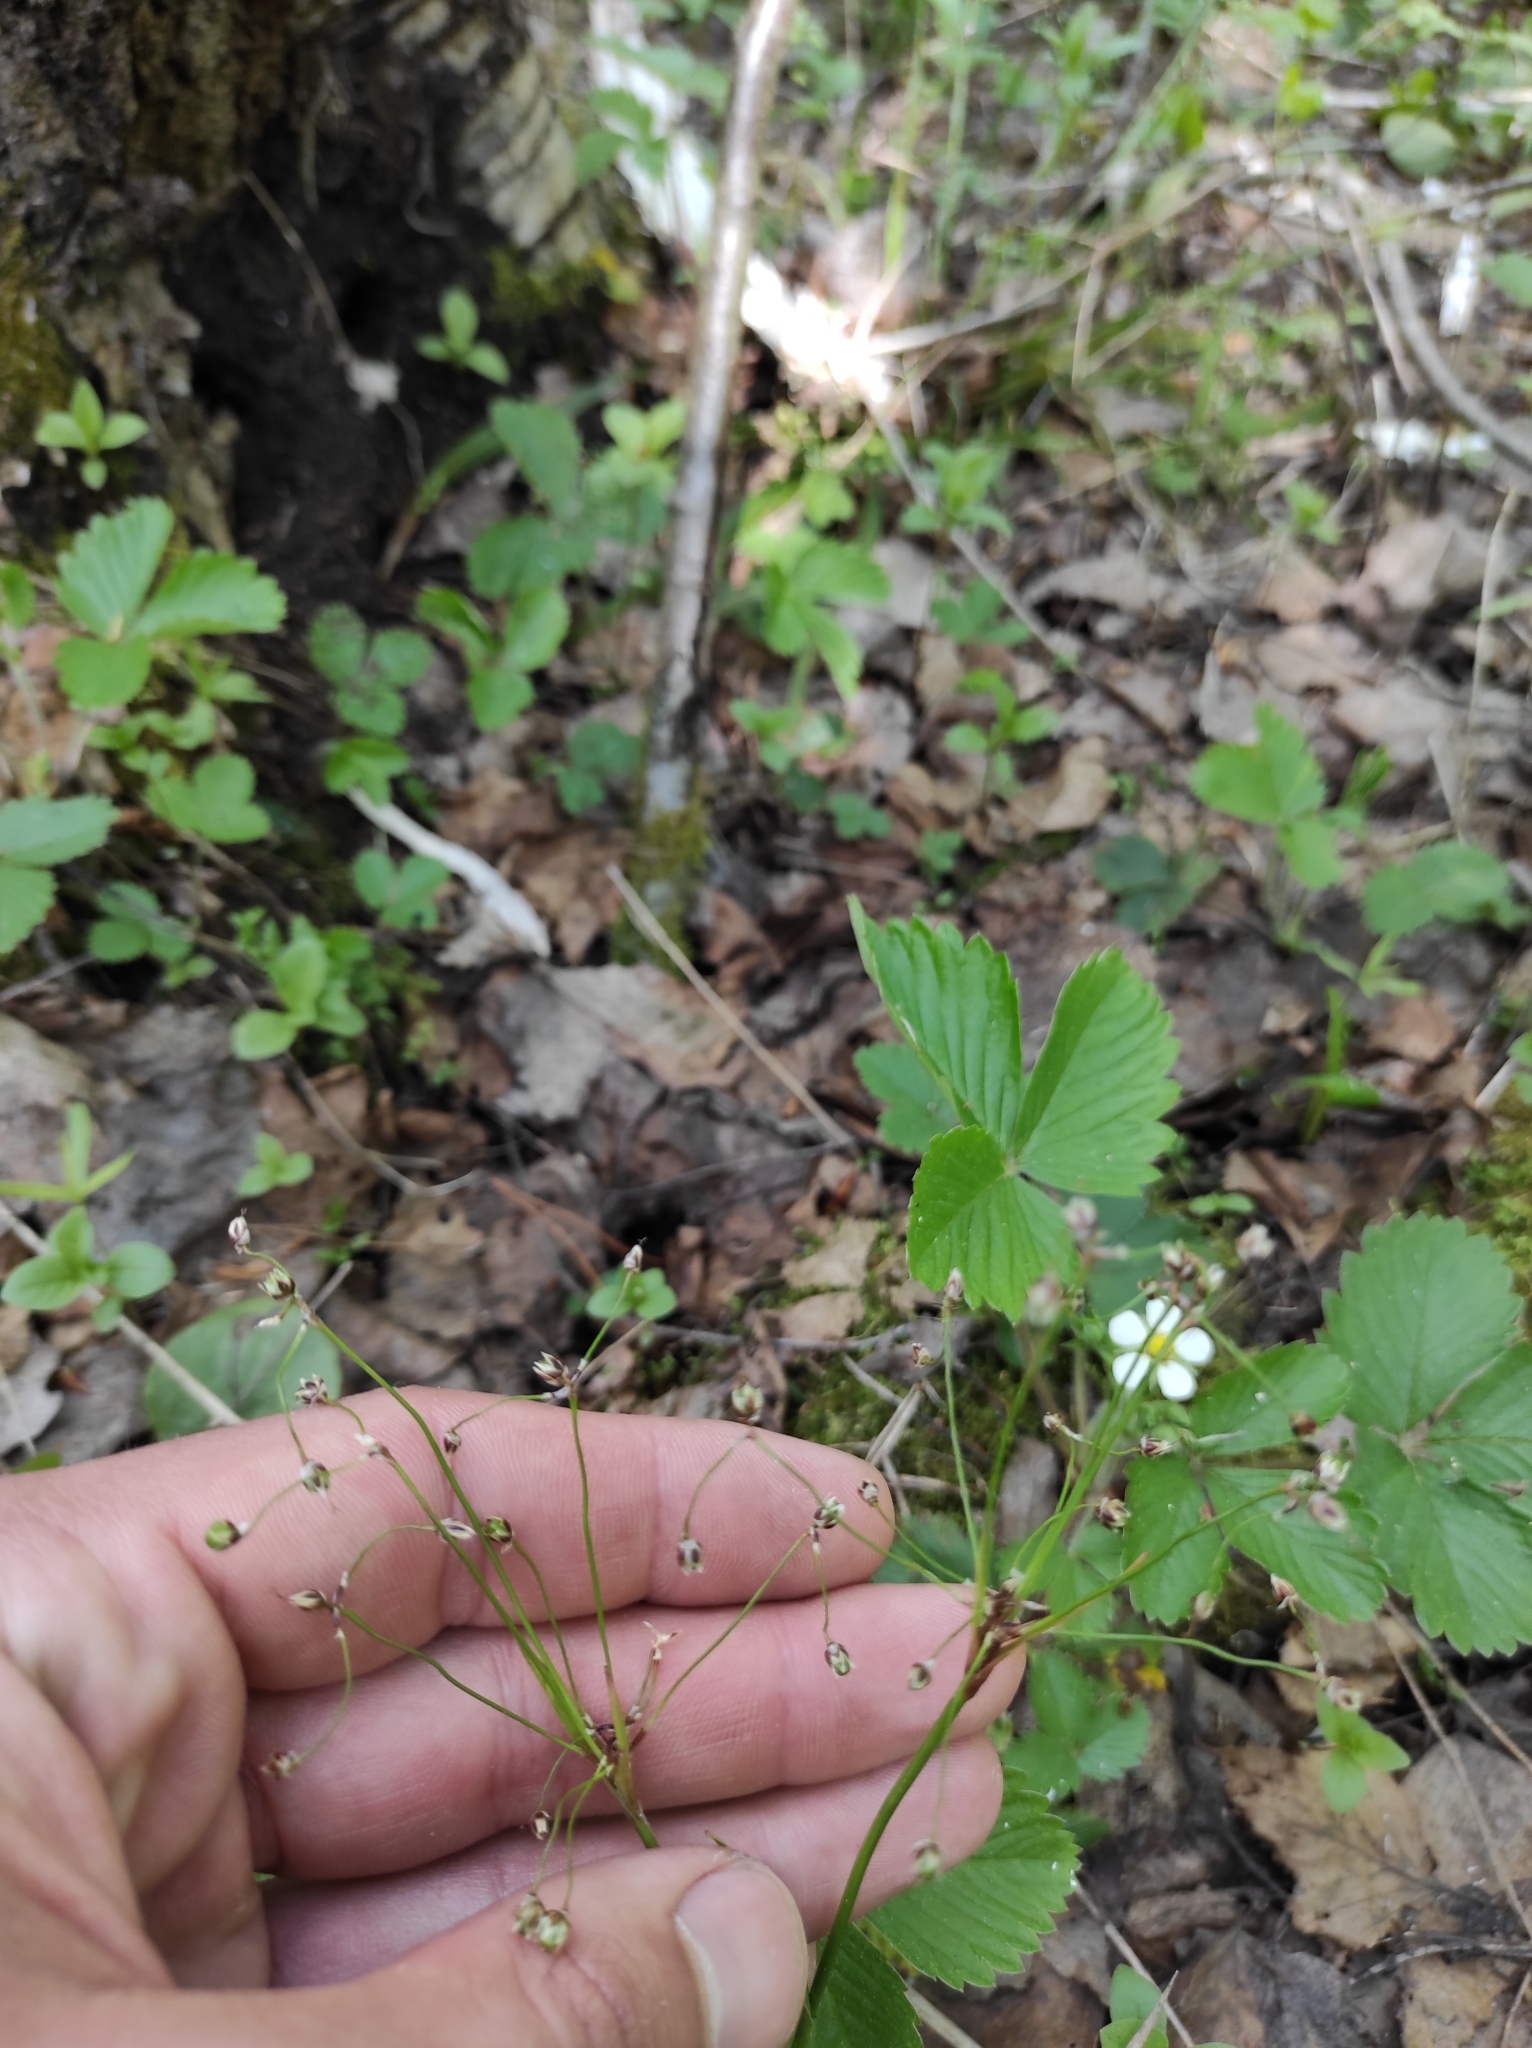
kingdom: Plantae
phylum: Tracheophyta
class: Liliopsida
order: Poales
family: Juncaceae
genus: Luzula
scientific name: Luzula pilosa
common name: Hairy wood-rush
